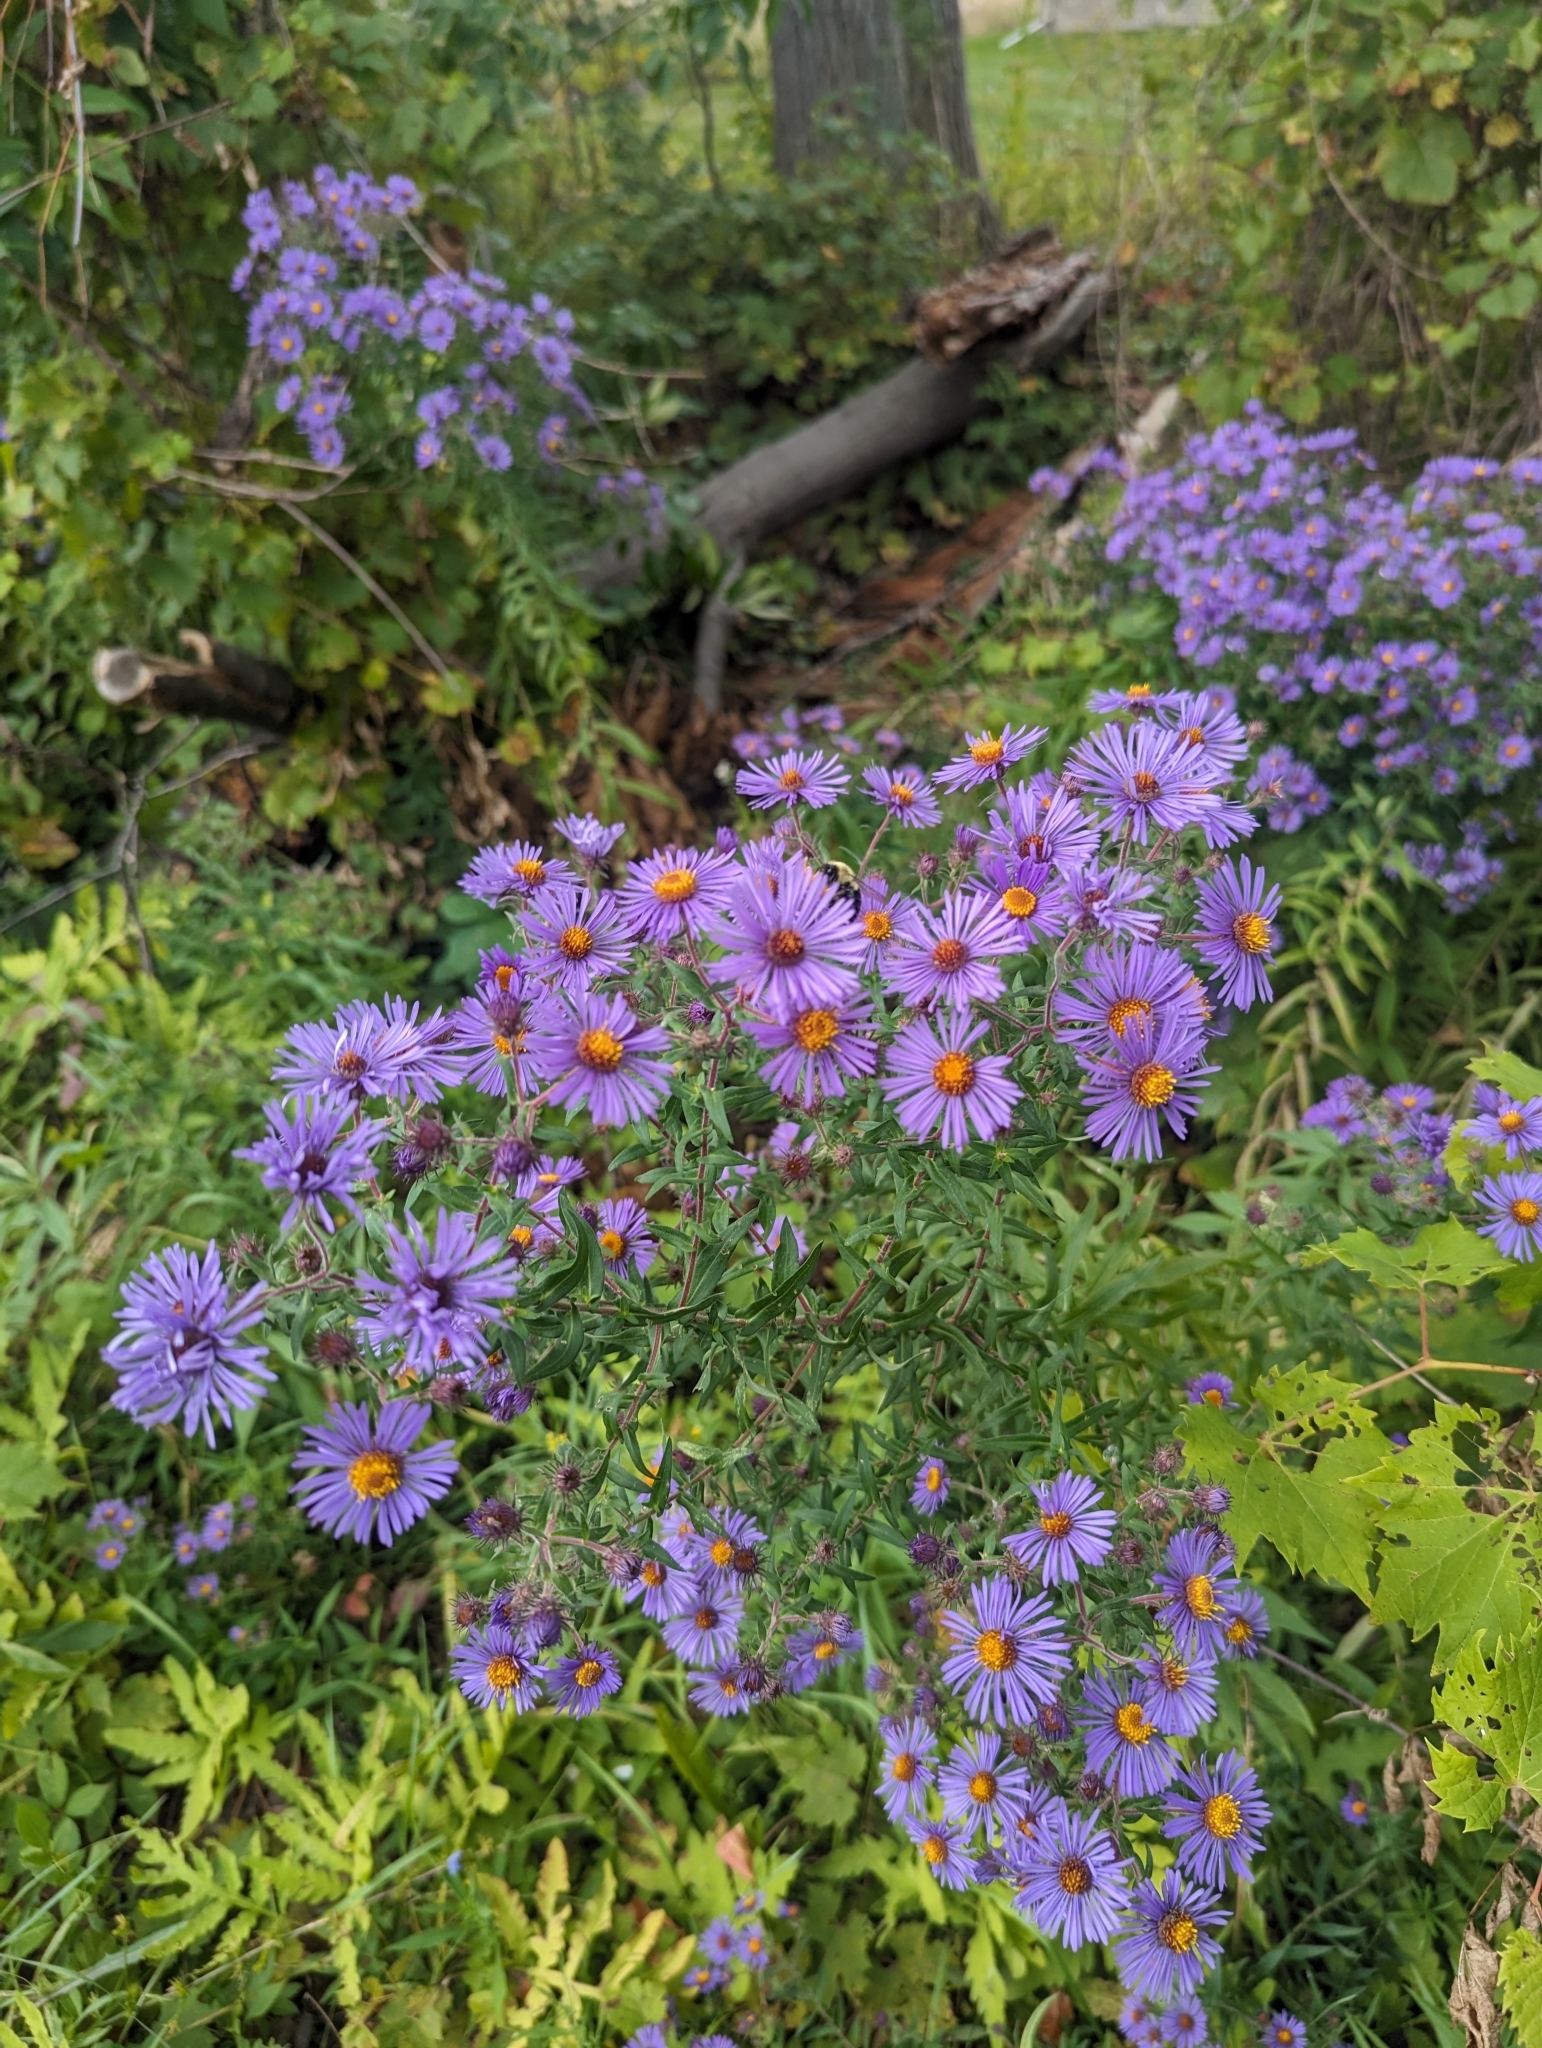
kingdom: Plantae
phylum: Tracheophyta
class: Magnoliopsida
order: Asterales
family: Asteraceae
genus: Symphyotrichum
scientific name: Symphyotrichum novae-angliae
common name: Michaelmas daisy
